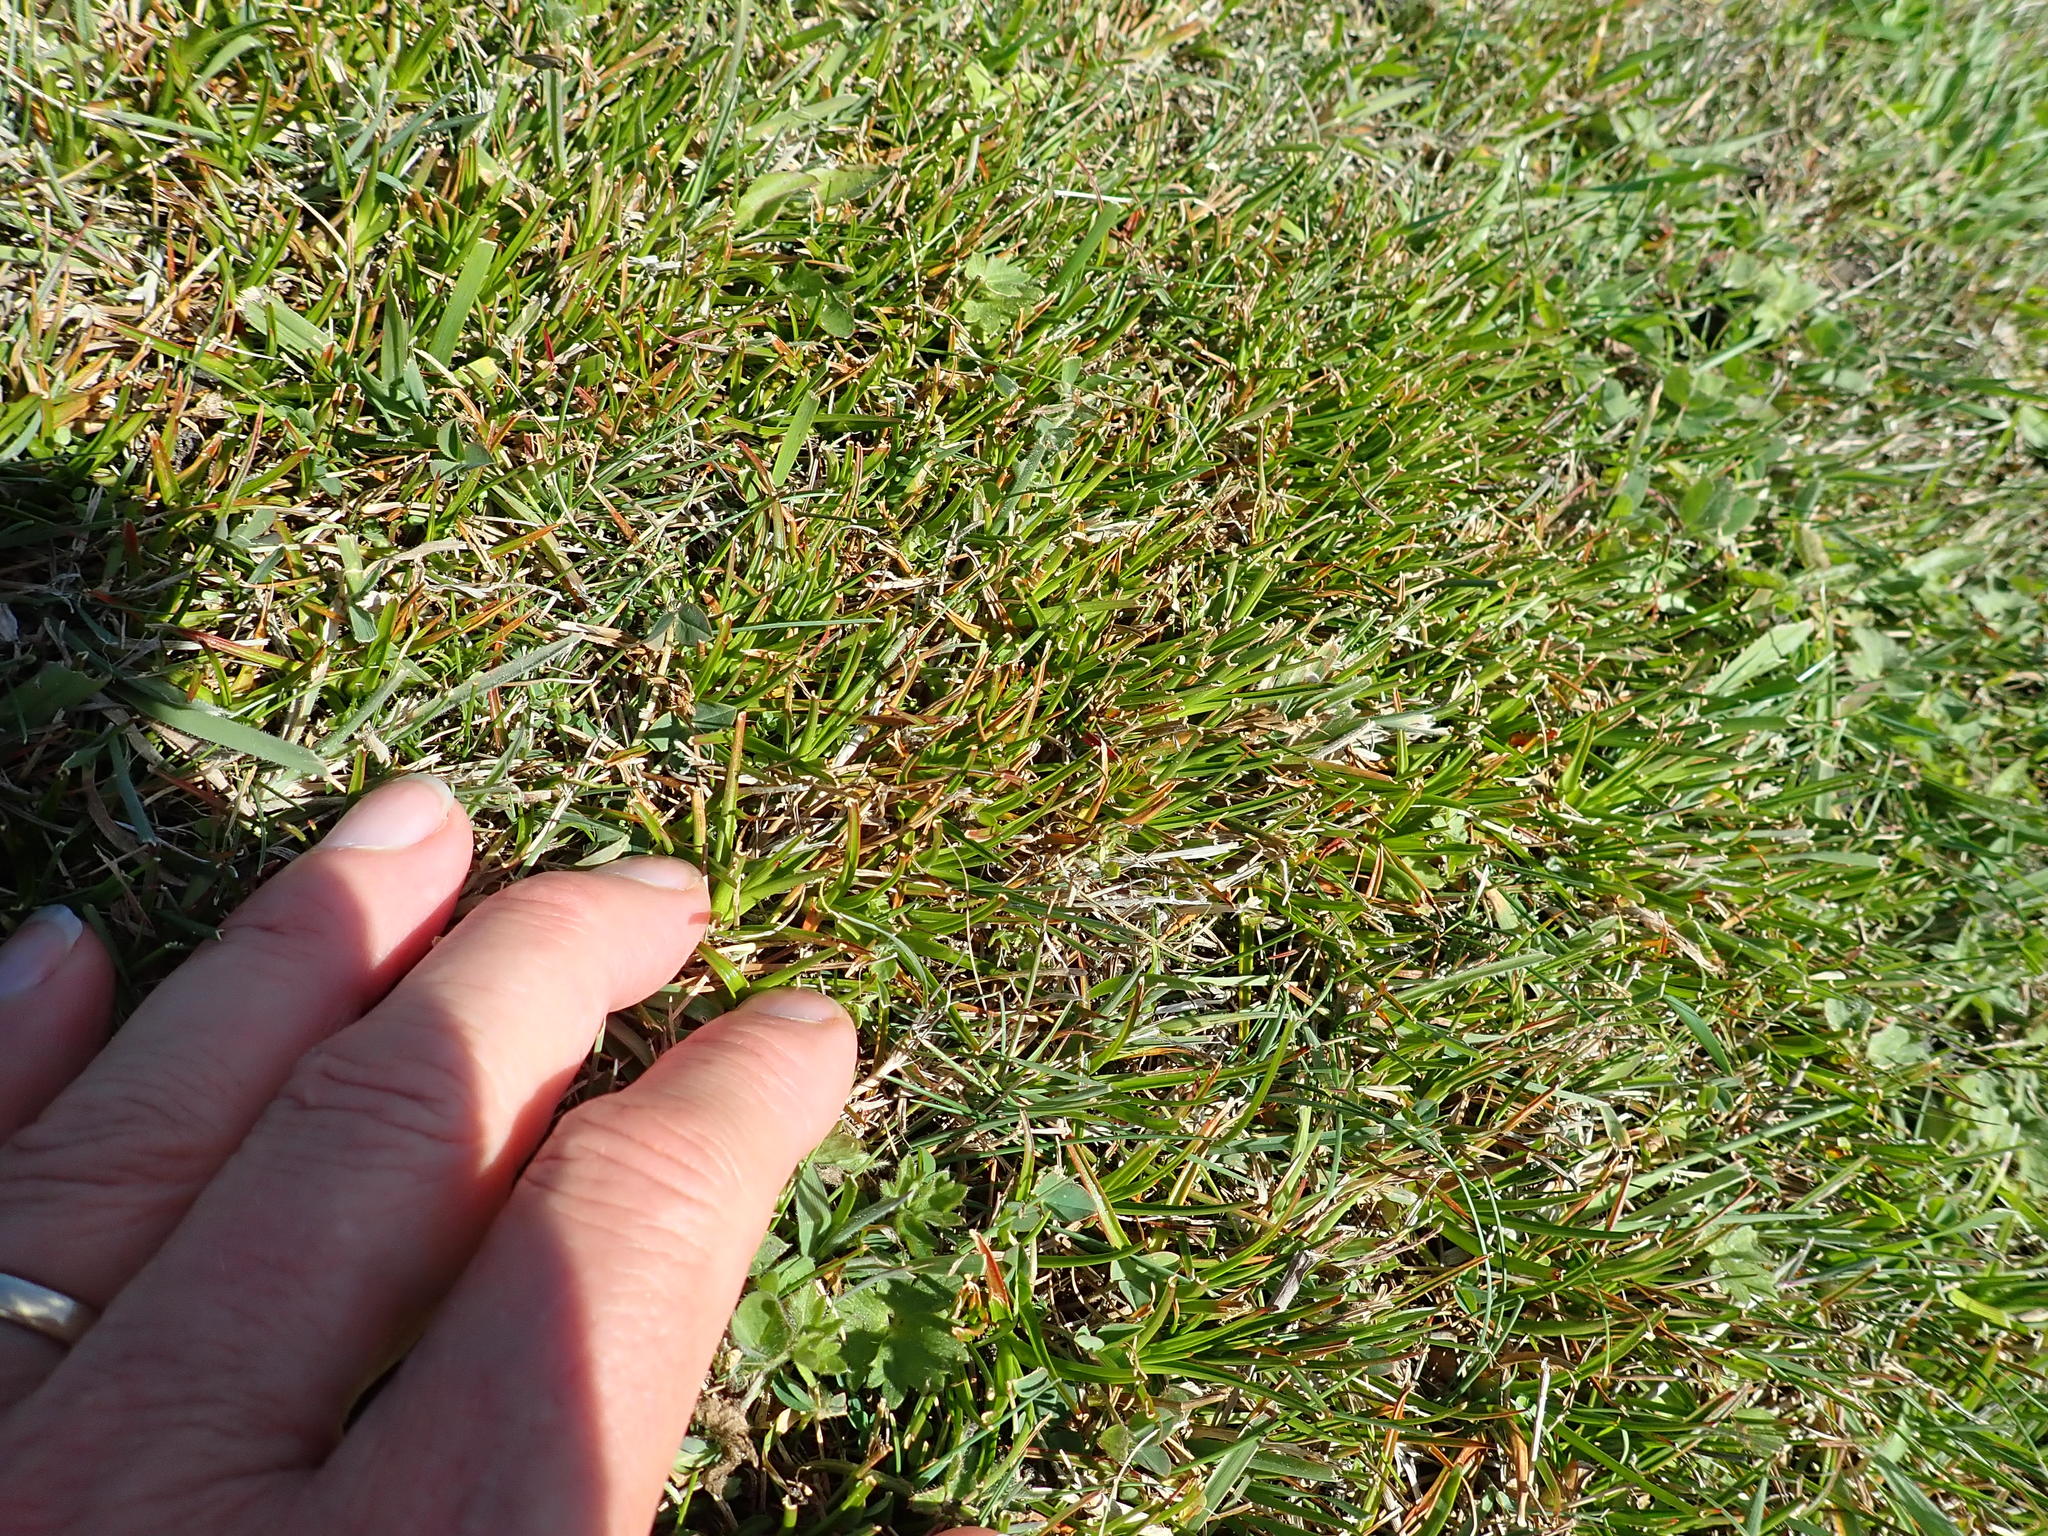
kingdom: Plantae
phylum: Tracheophyta
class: Liliopsida
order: Poales
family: Juncaceae
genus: Juncus
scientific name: Juncus caespiticius
